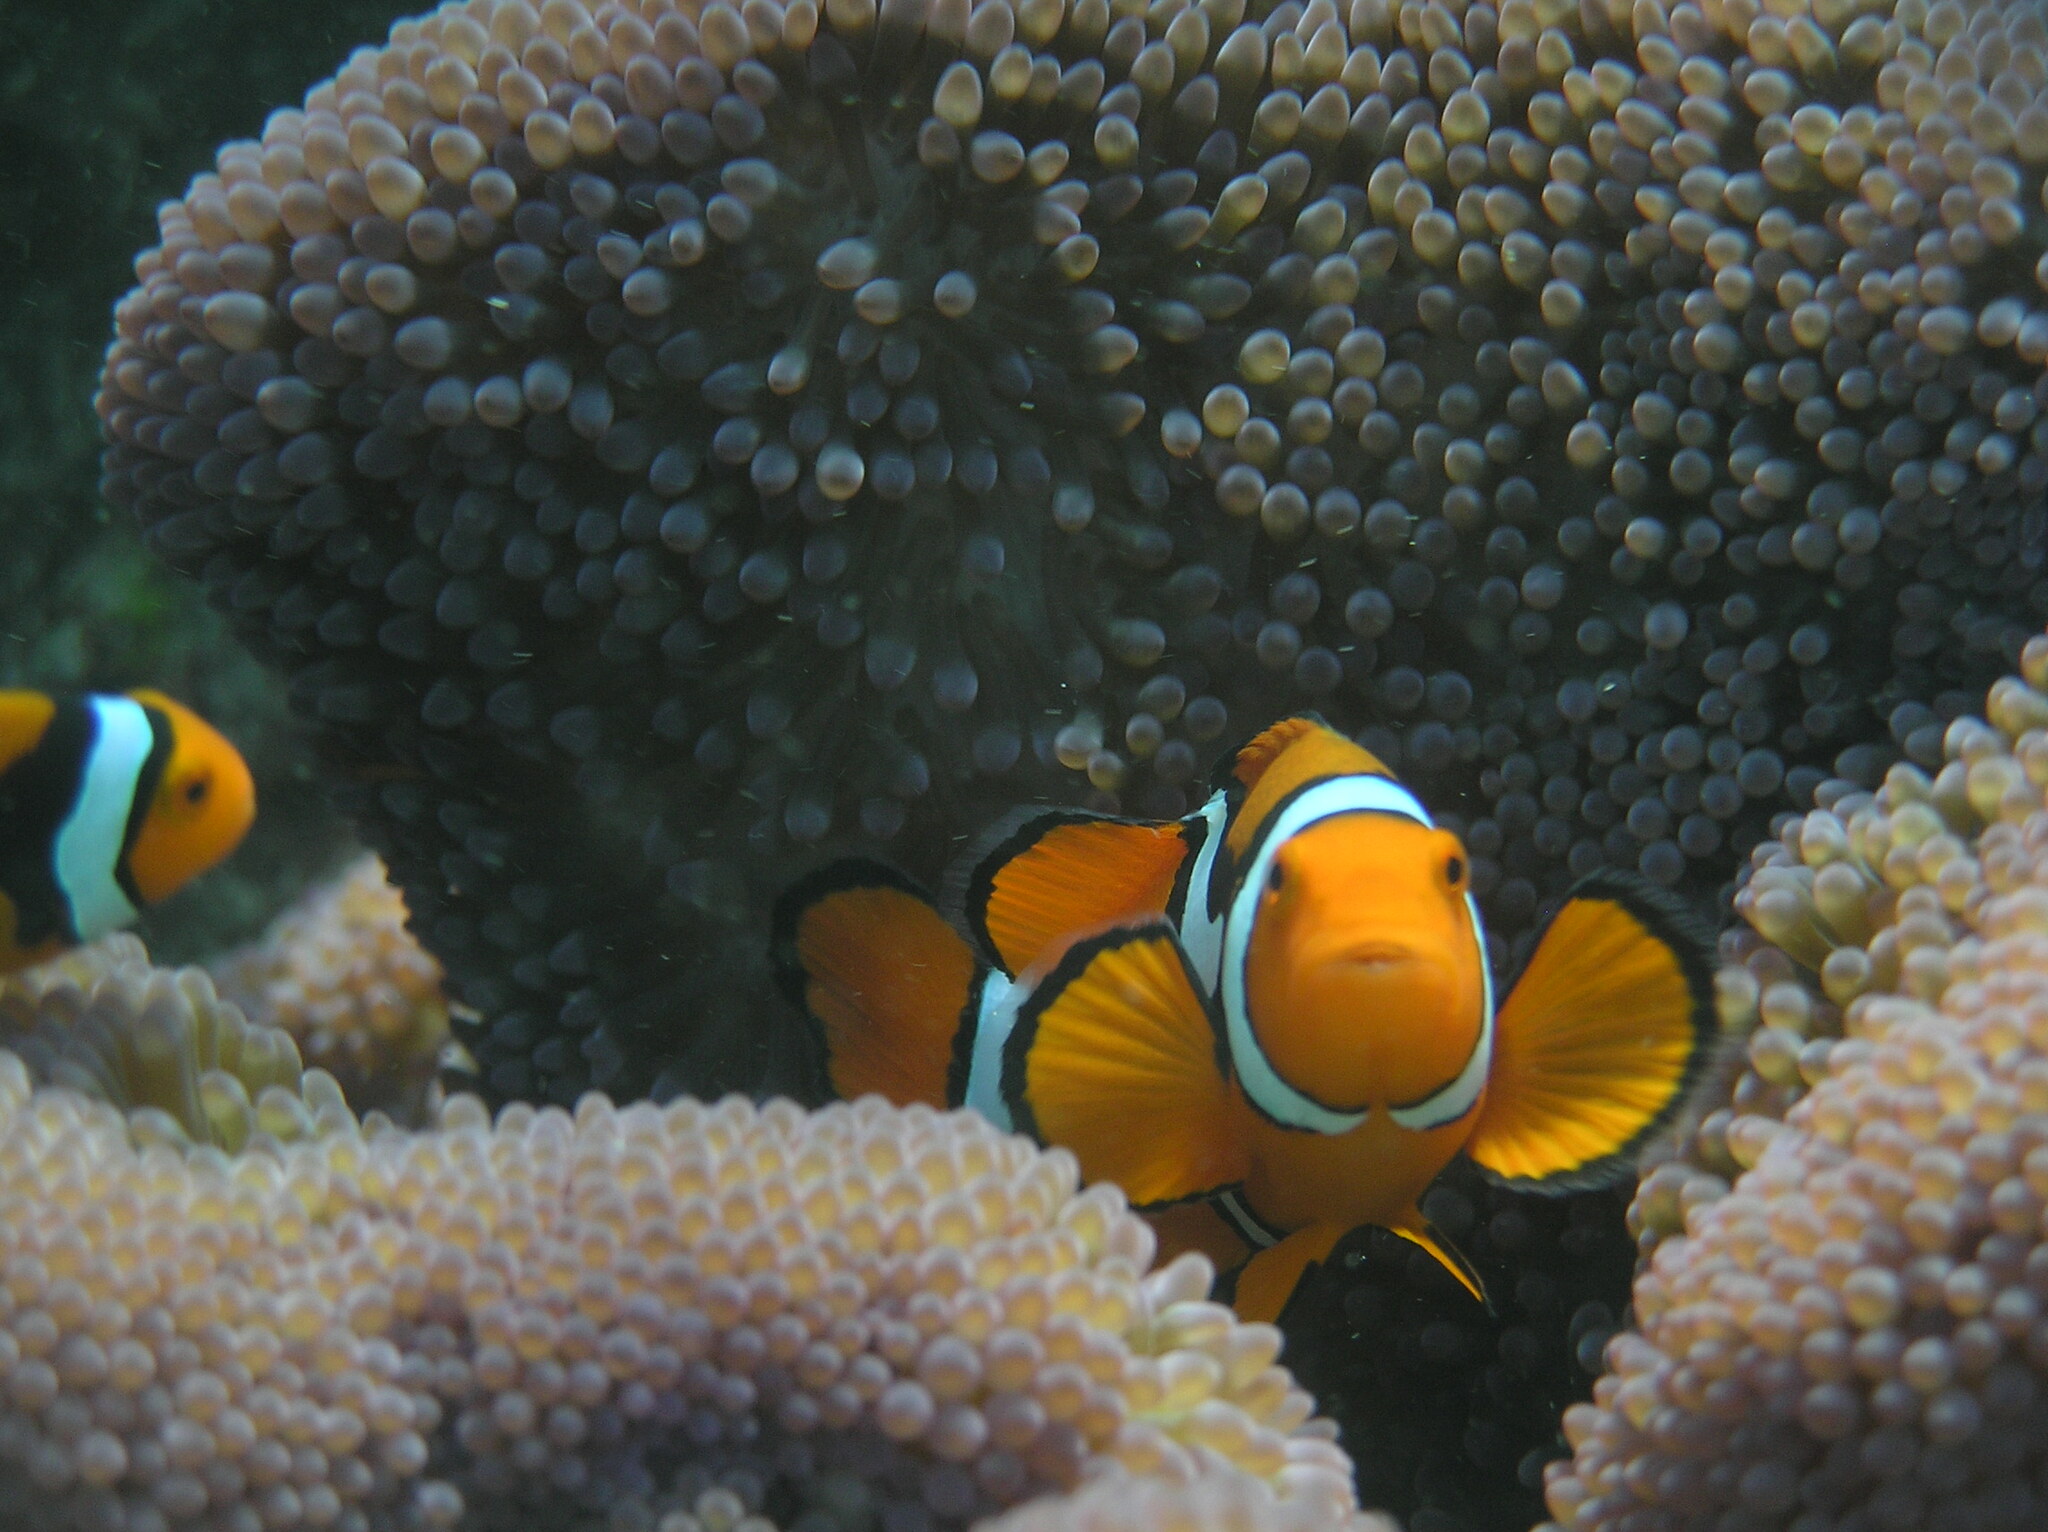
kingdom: Animalia
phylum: Chordata
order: Perciformes
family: Pomacentridae
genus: Amphiprion
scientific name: Amphiprion percula
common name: Clown anemonefish
